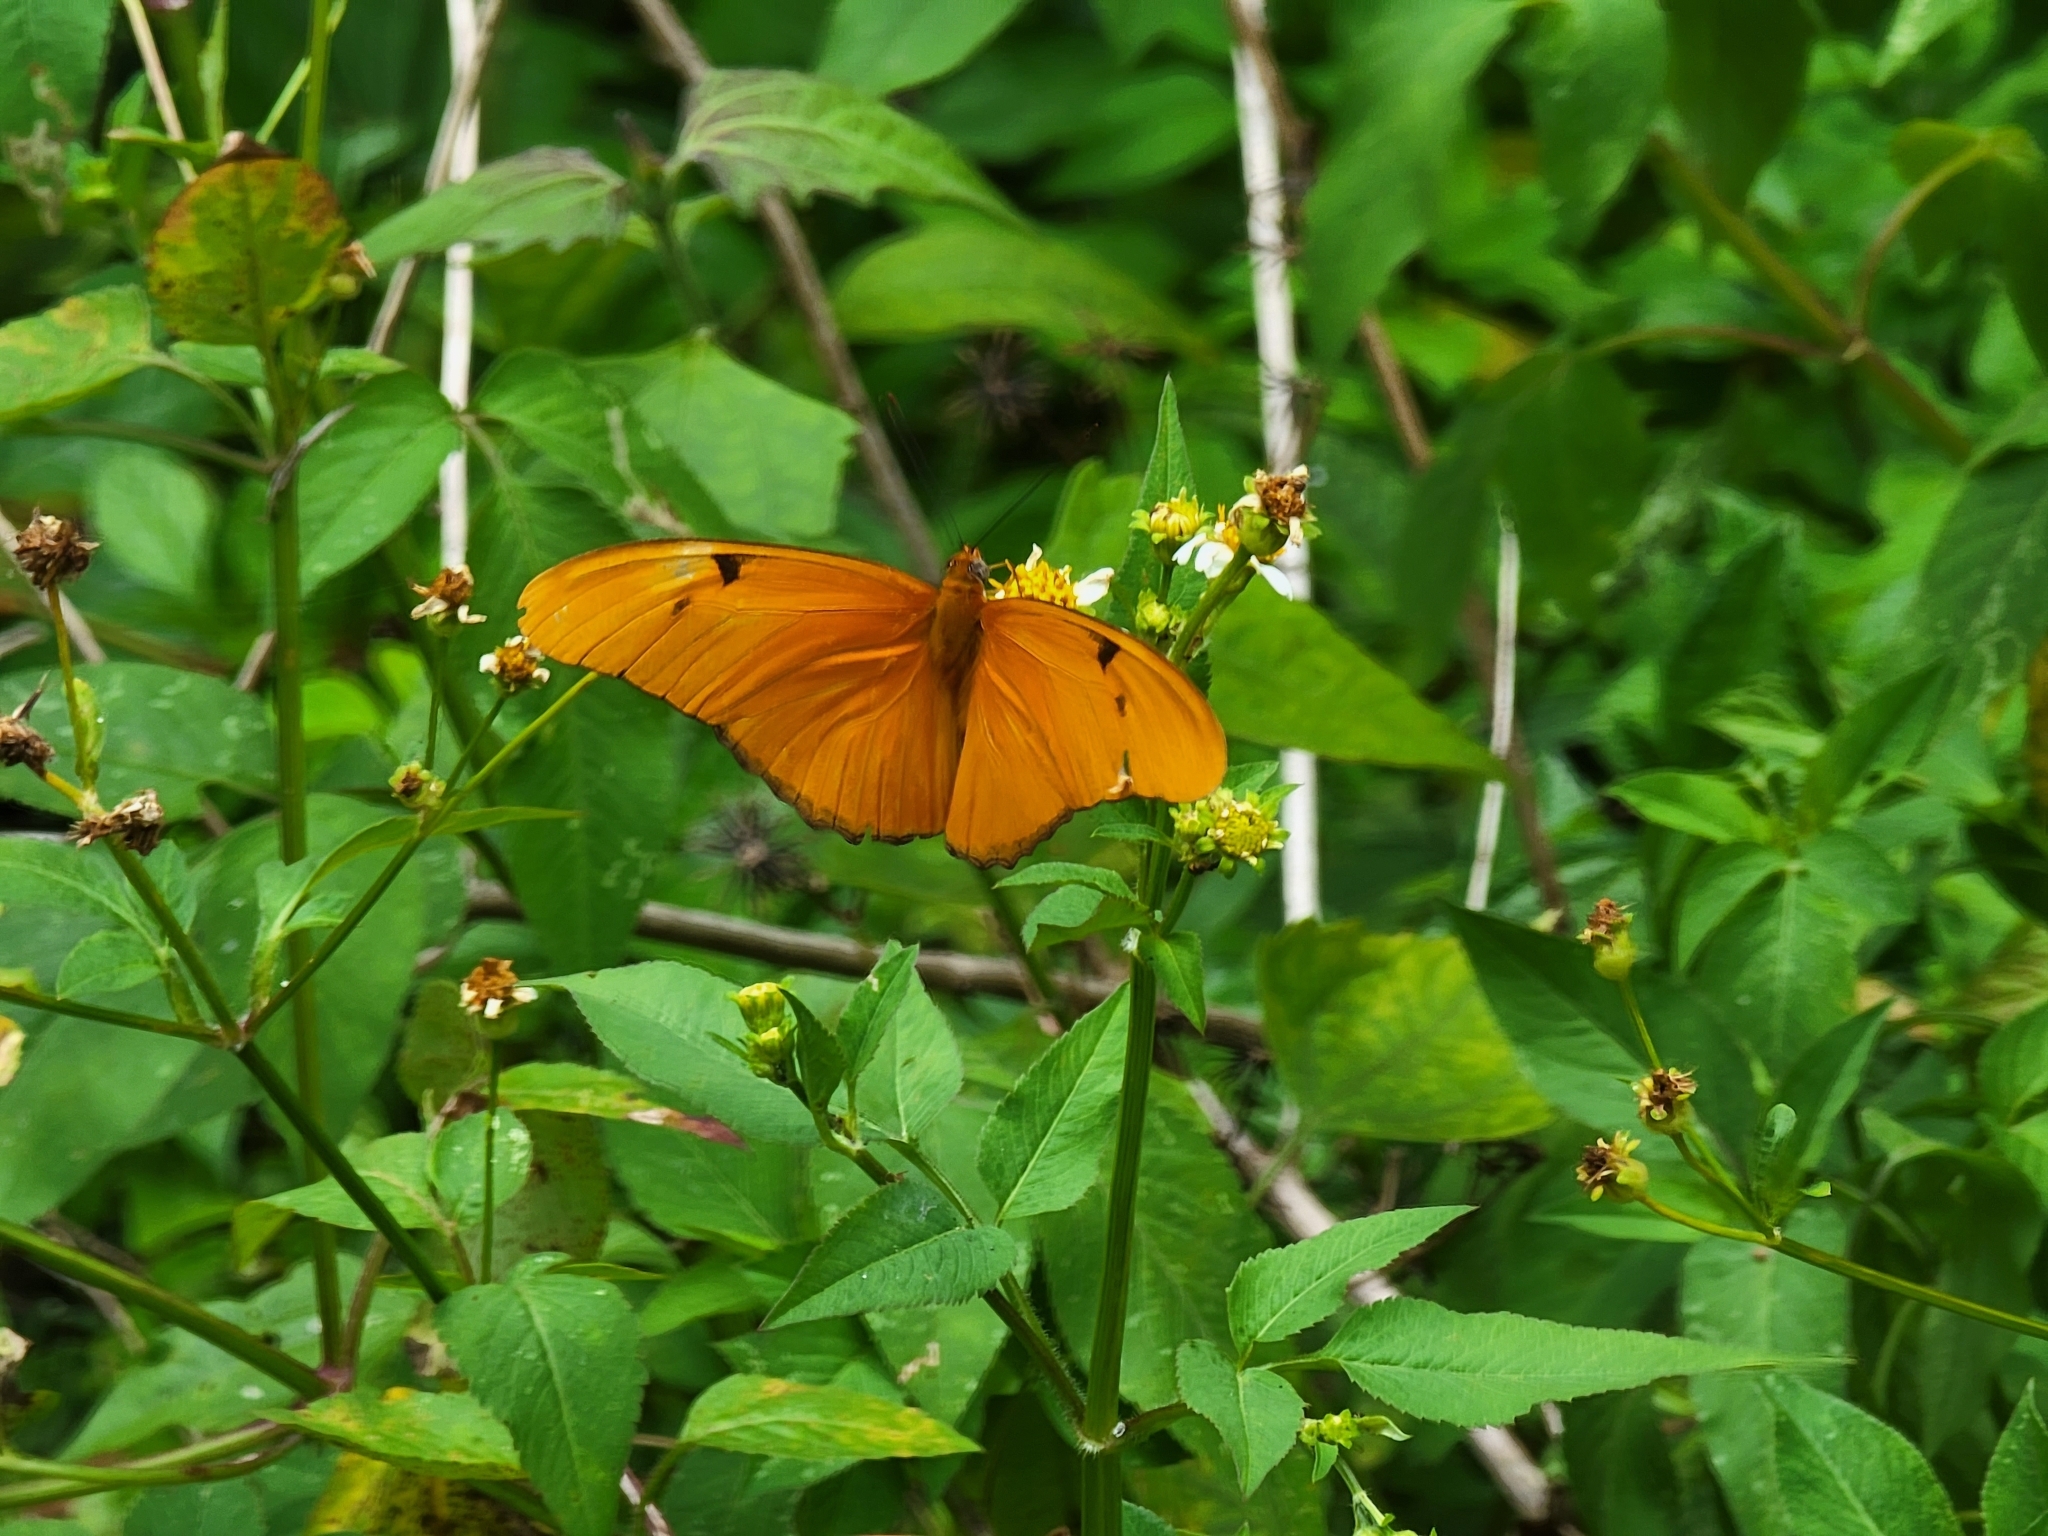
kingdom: Animalia
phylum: Arthropoda
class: Insecta
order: Lepidoptera
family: Nymphalidae
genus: Dryas
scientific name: Dryas iulia
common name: Flambeau
